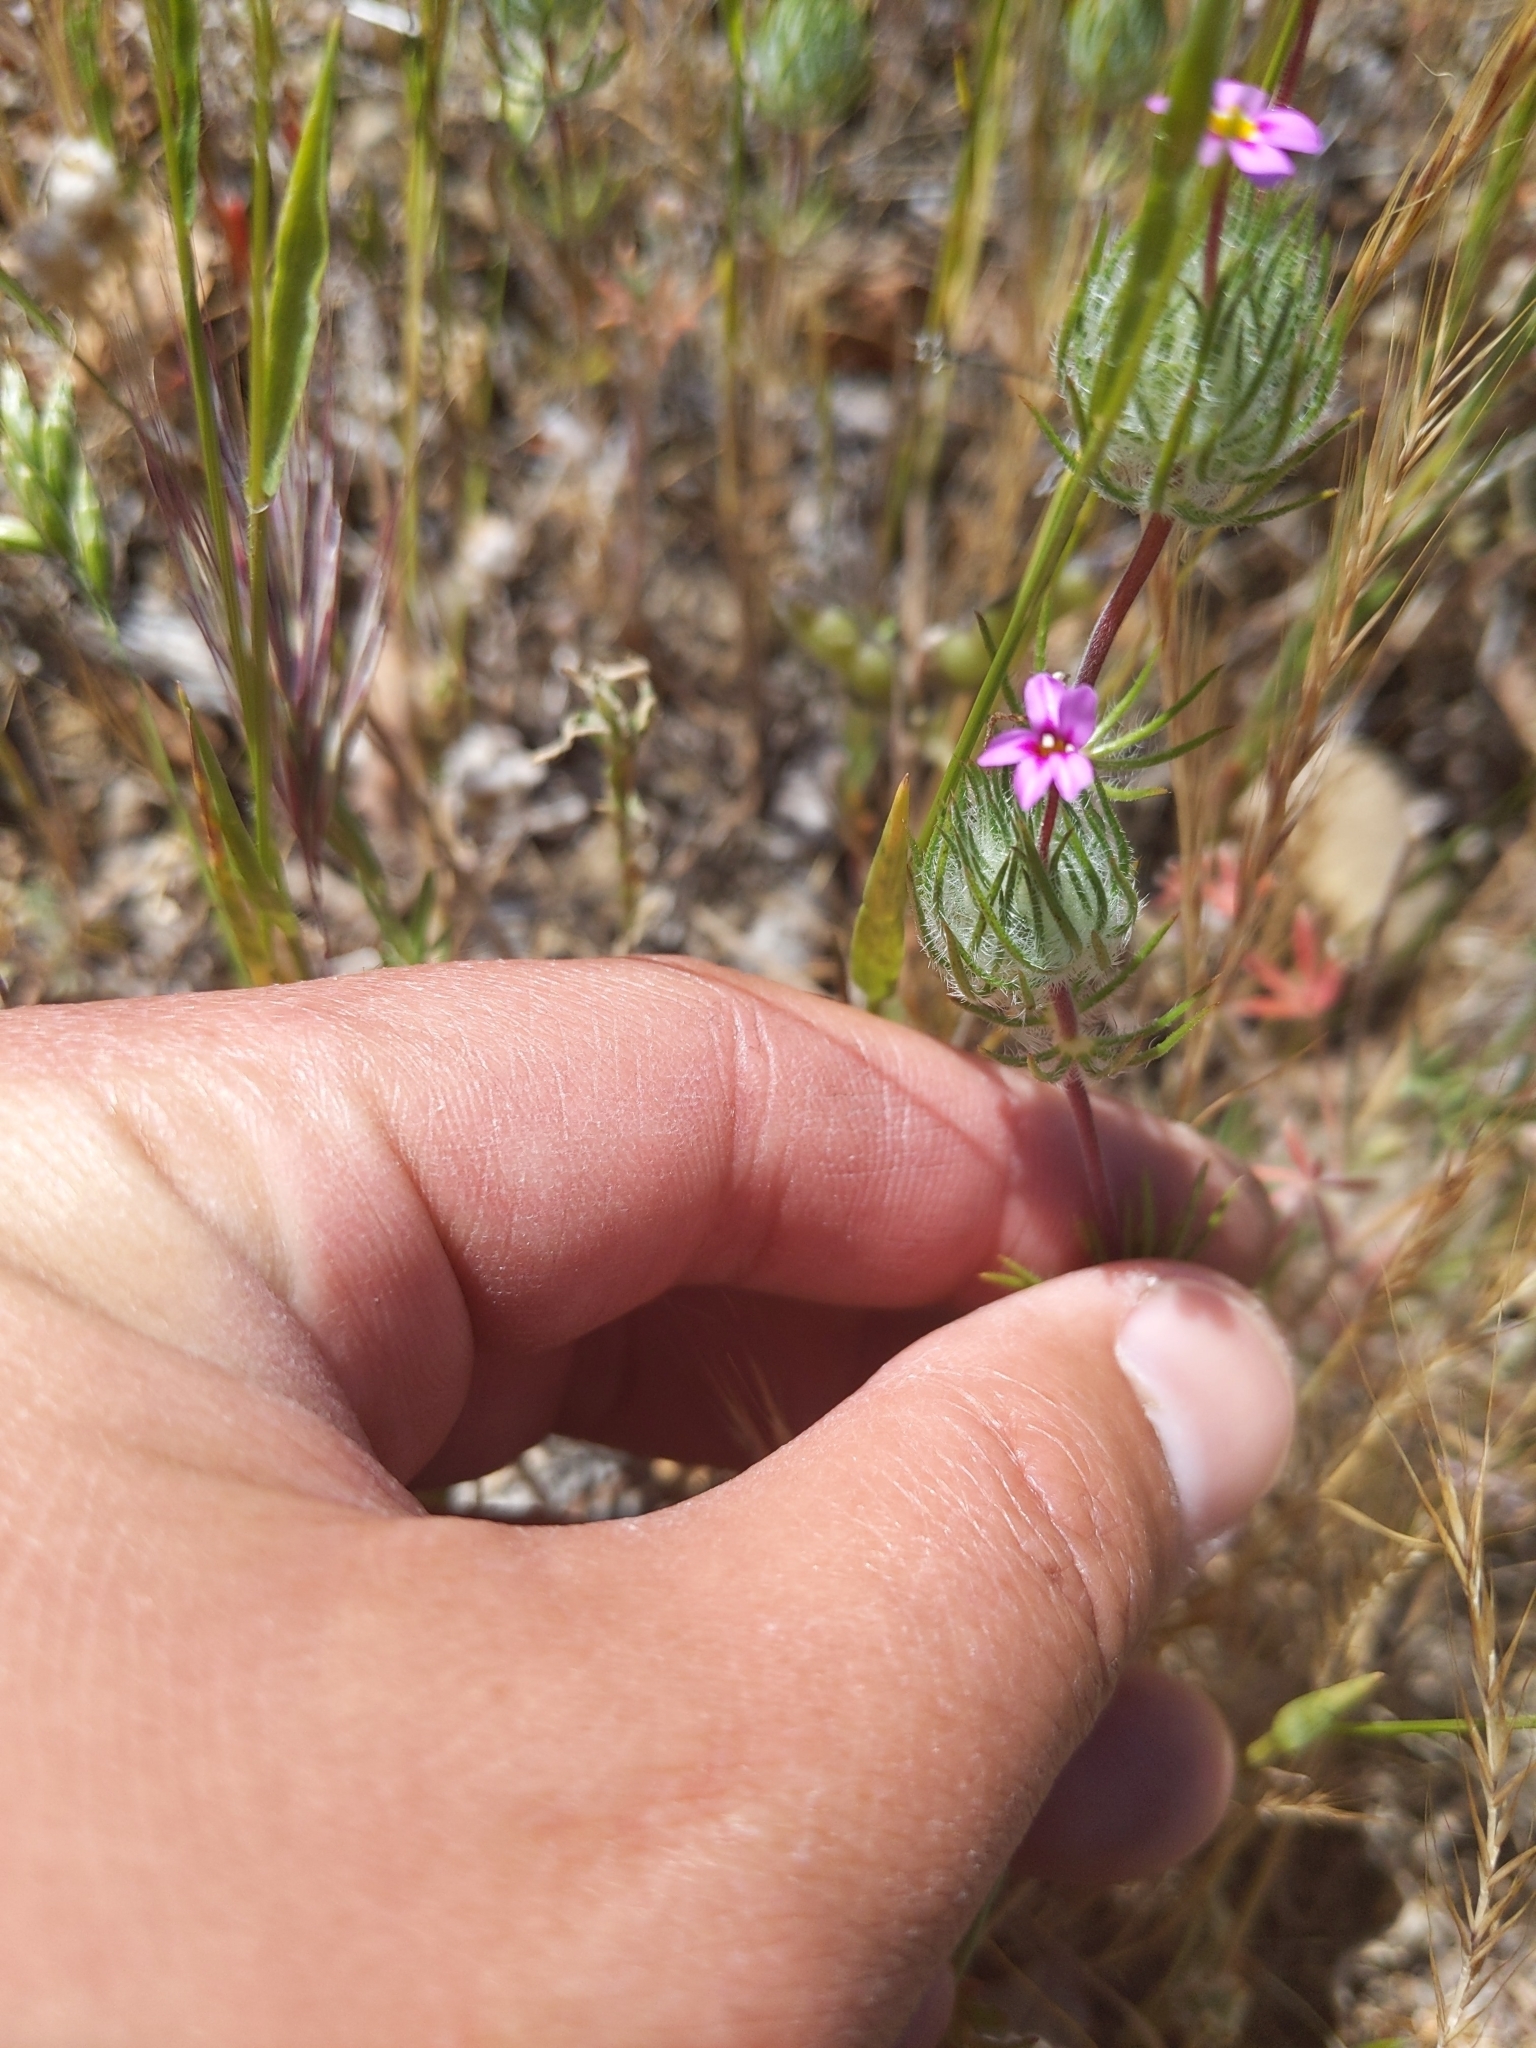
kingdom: Plantae
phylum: Tracheophyta
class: Magnoliopsida
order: Ericales
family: Polemoniaceae
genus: Leptosiphon
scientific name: Leptosiphon ciliatus
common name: Whiskerbrush
